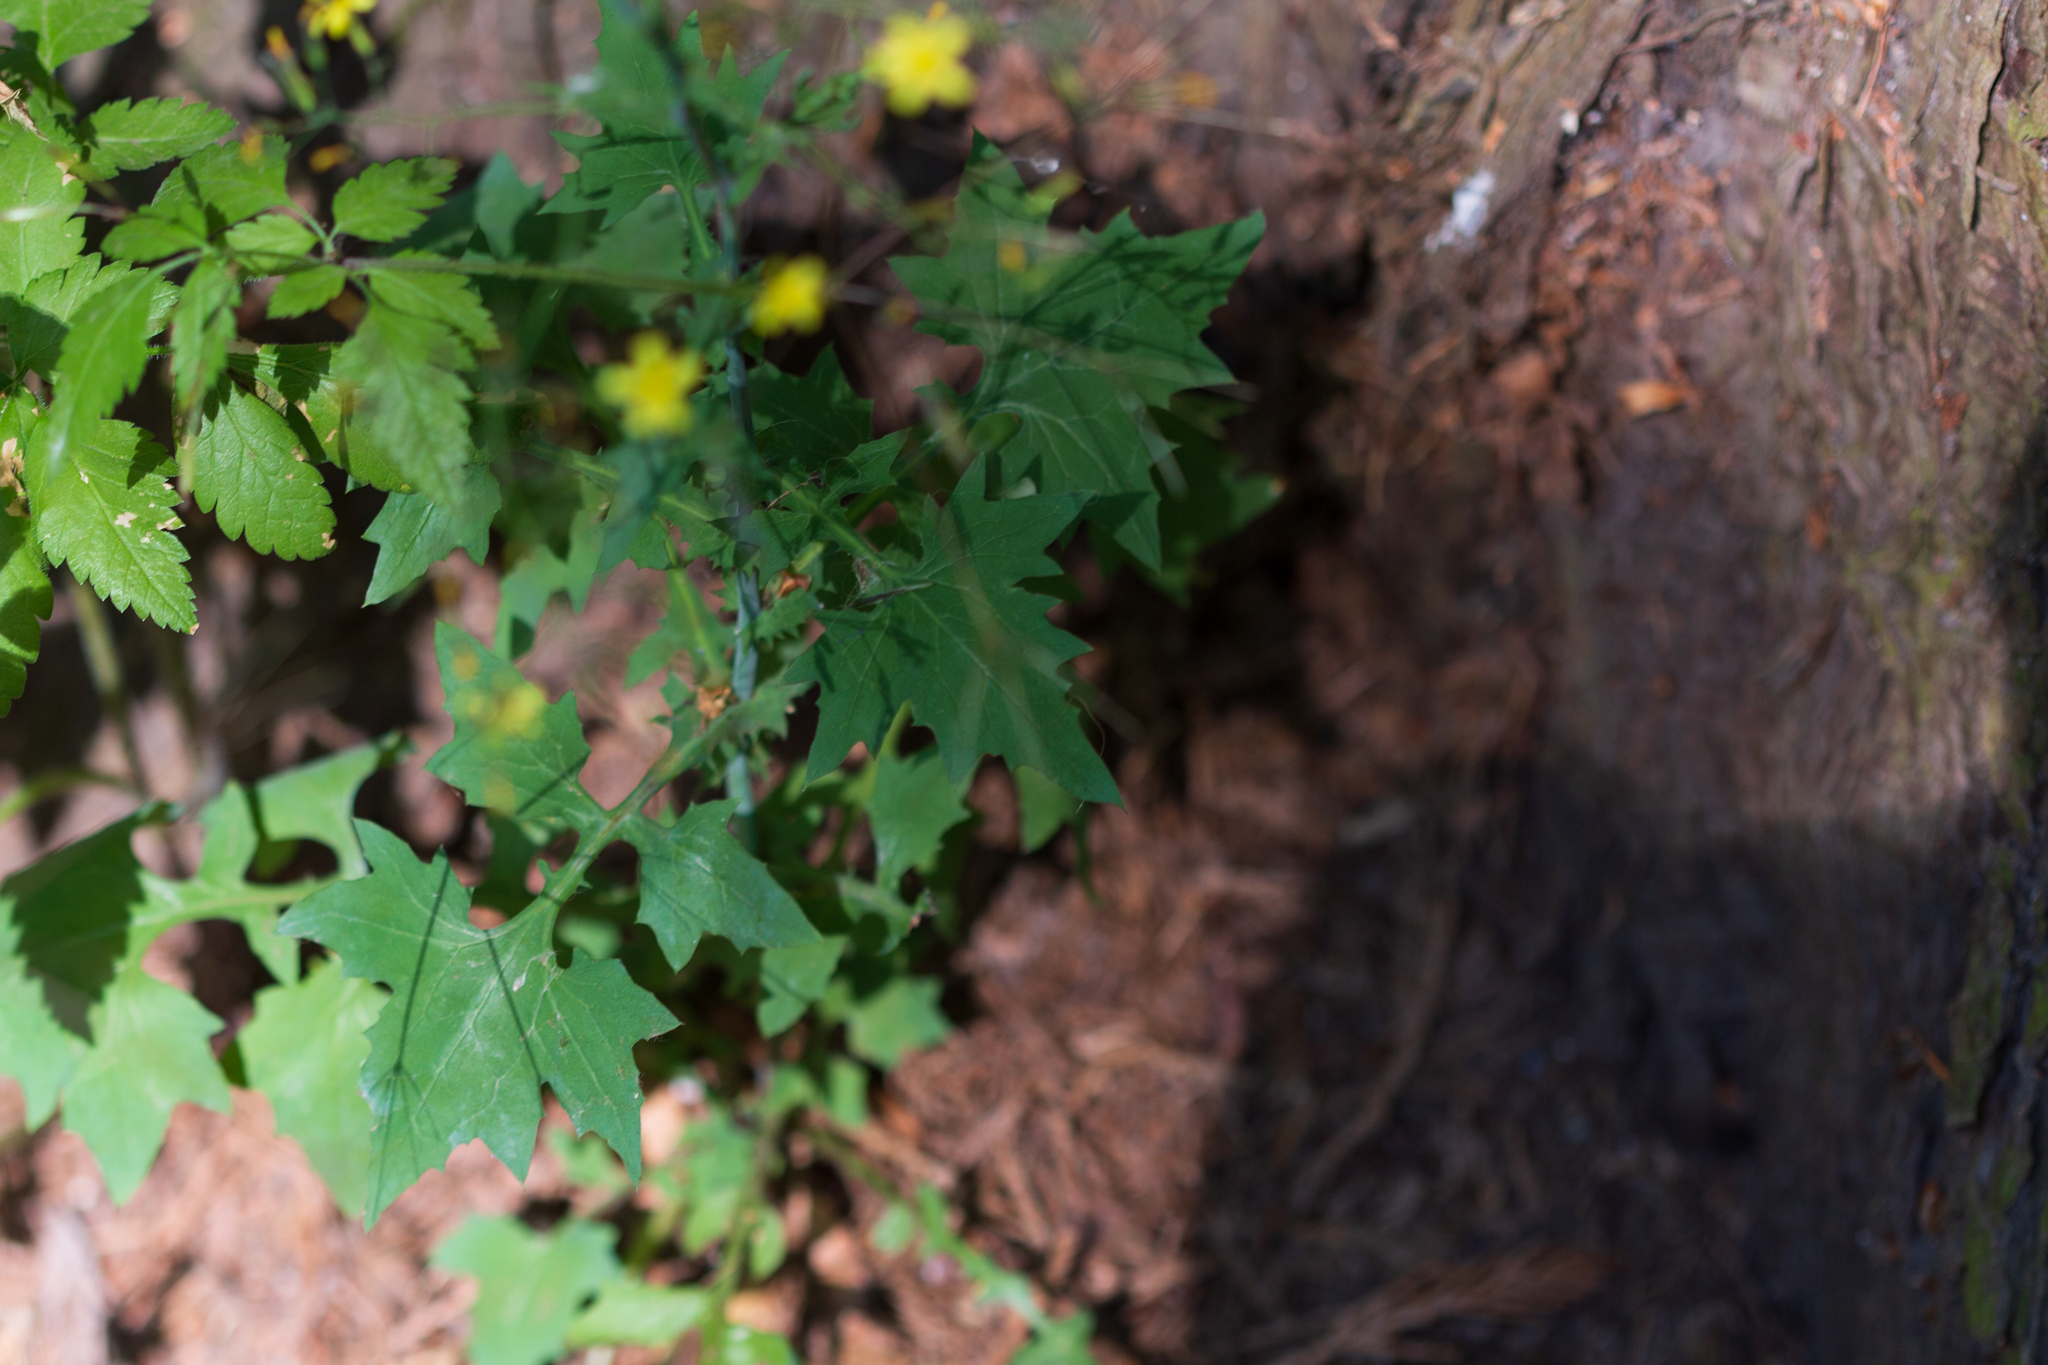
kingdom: Plantae
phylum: Tracheophyta
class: Magnoliopsida
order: Asterales
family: Asteraceae
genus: Mycelis
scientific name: Mycelis muralis
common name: Wall lettuce
